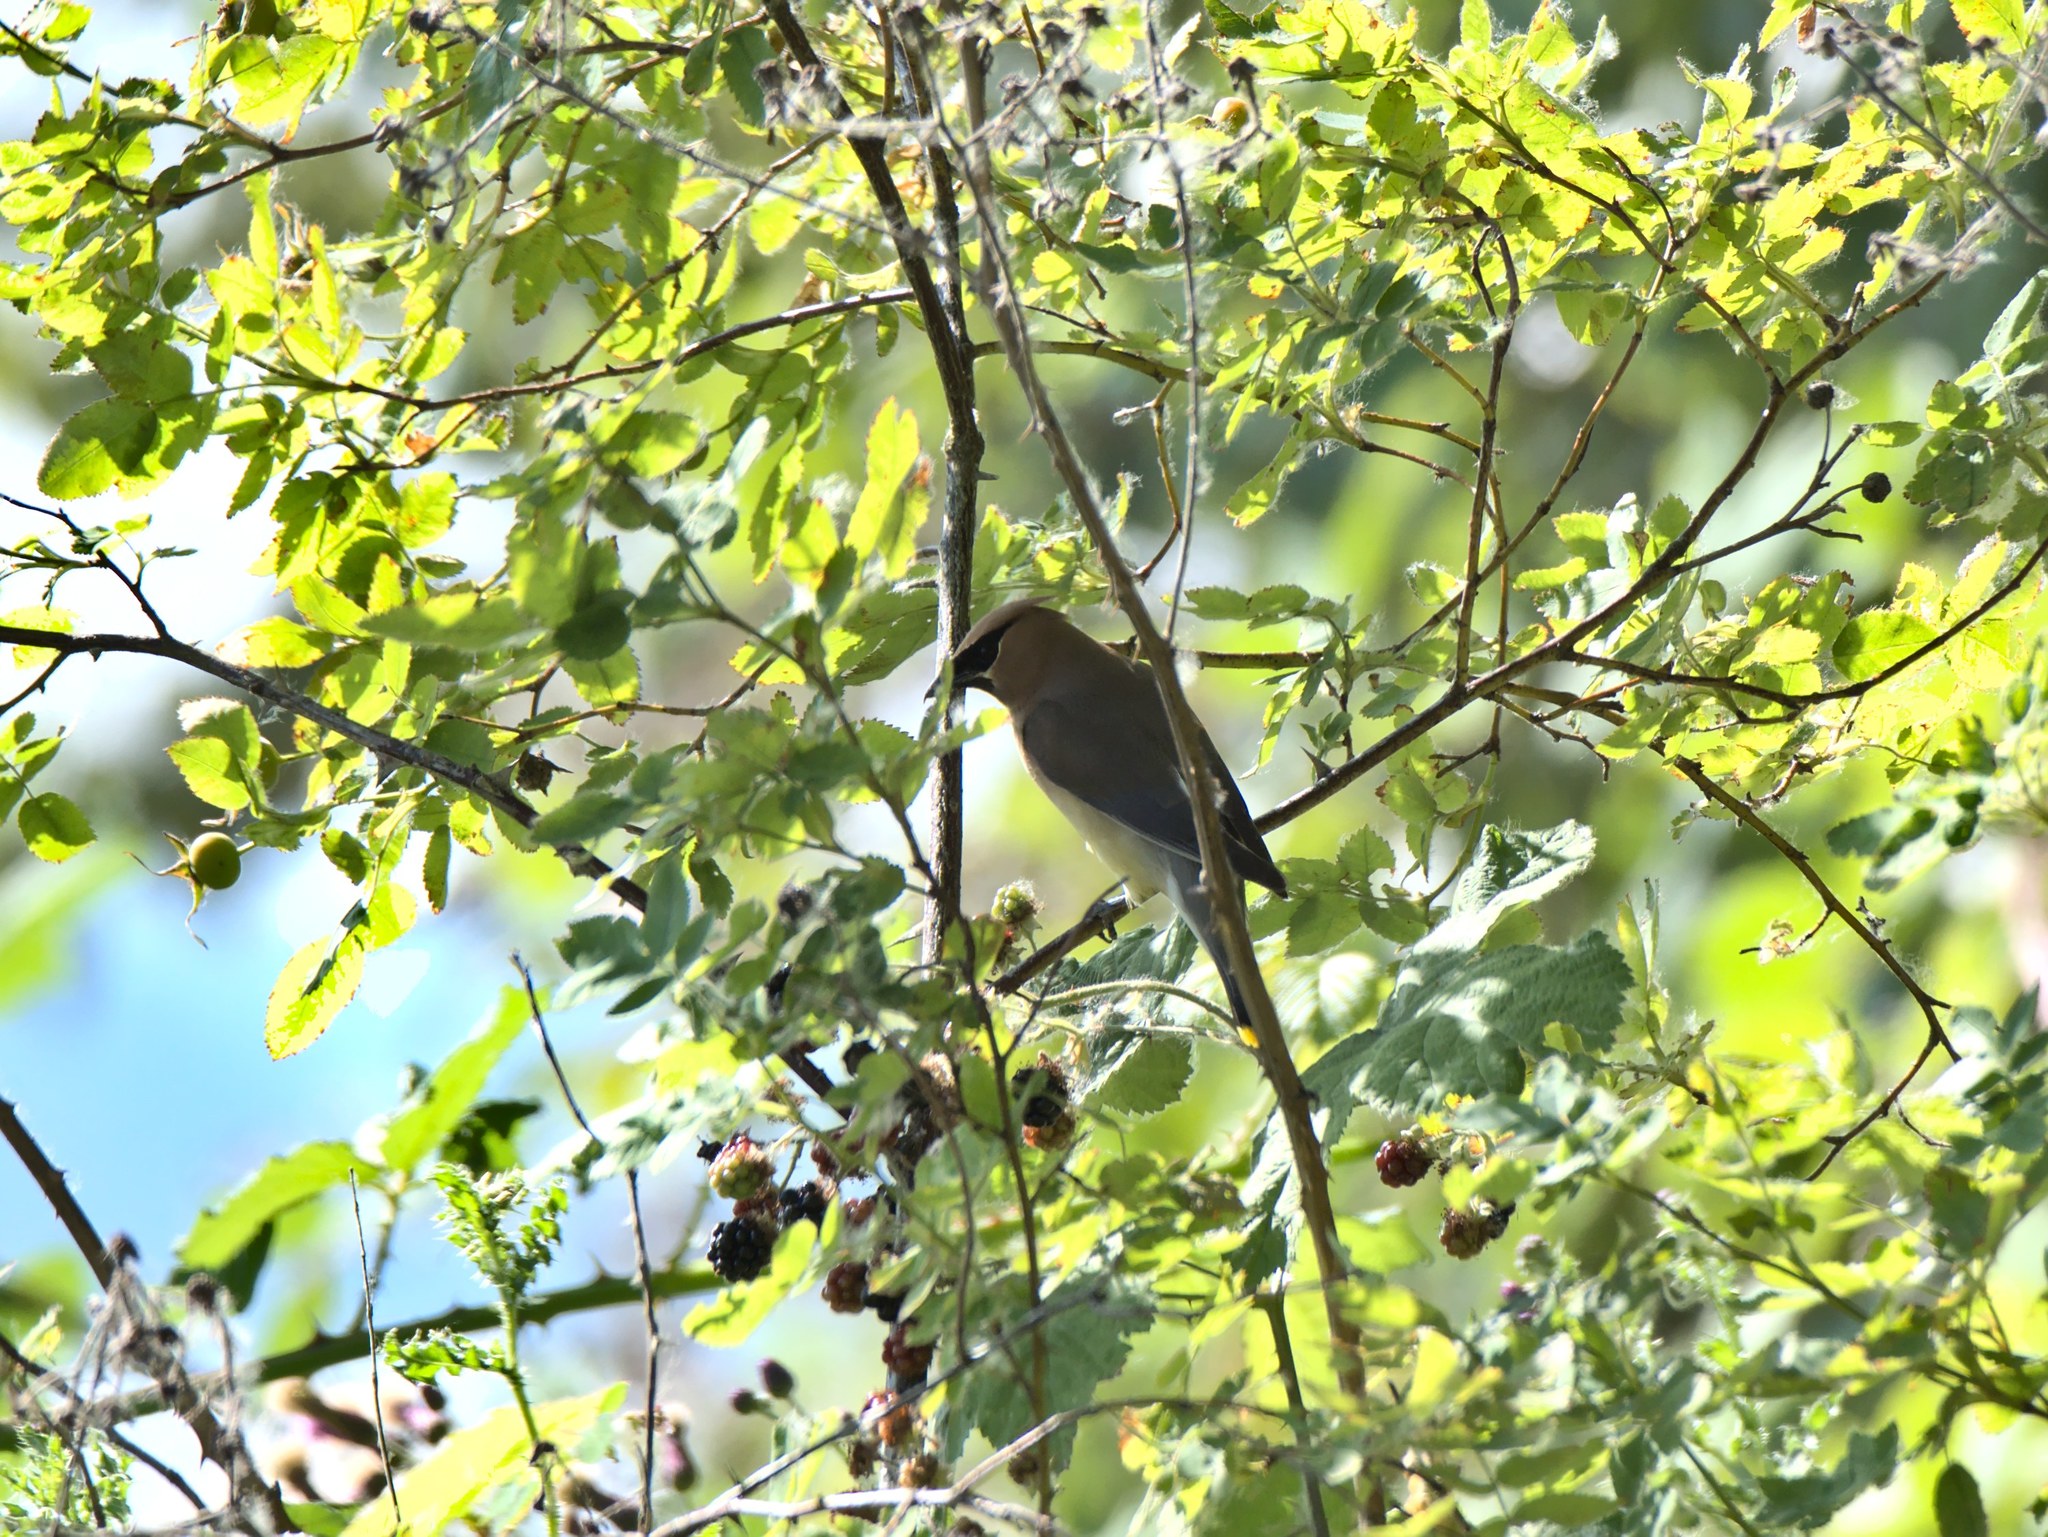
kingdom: Animalia
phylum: Chordata
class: Aves
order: Passeriformes
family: Bombycillidae
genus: Bombycilla
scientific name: Bombycilla cedrorum
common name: Cedar waxwing
